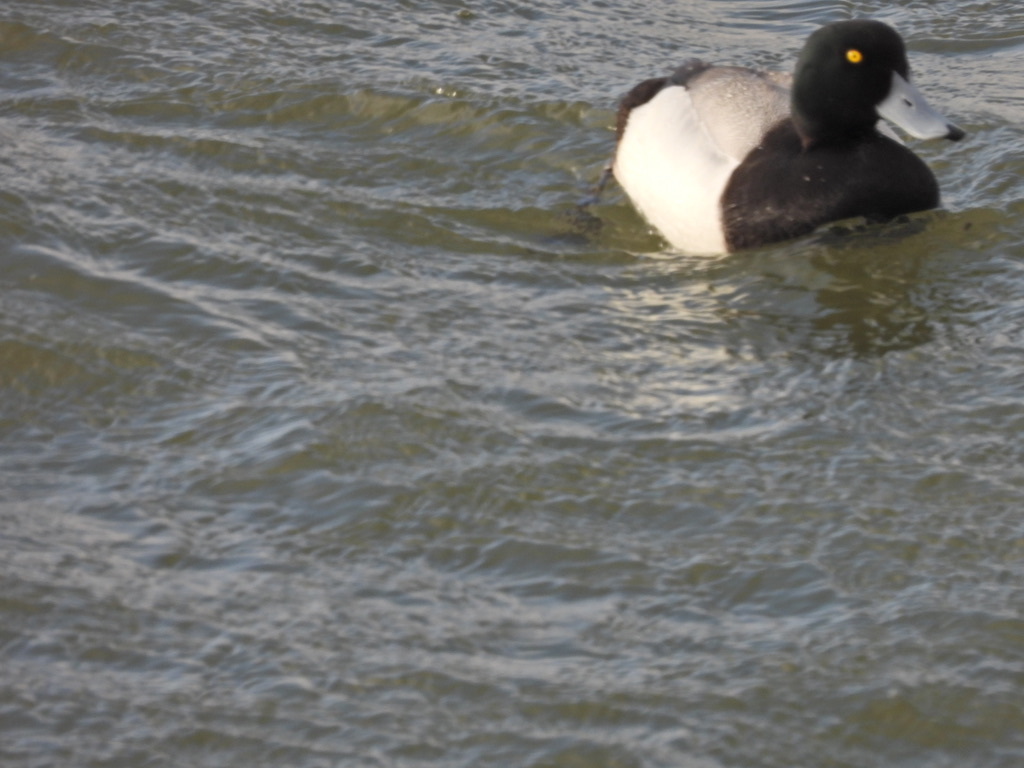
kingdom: Animalia
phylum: Chordata
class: Aves
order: Anseriformes
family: Anatidae
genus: Aythya
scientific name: Aythya affinis
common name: Lesser scaup
